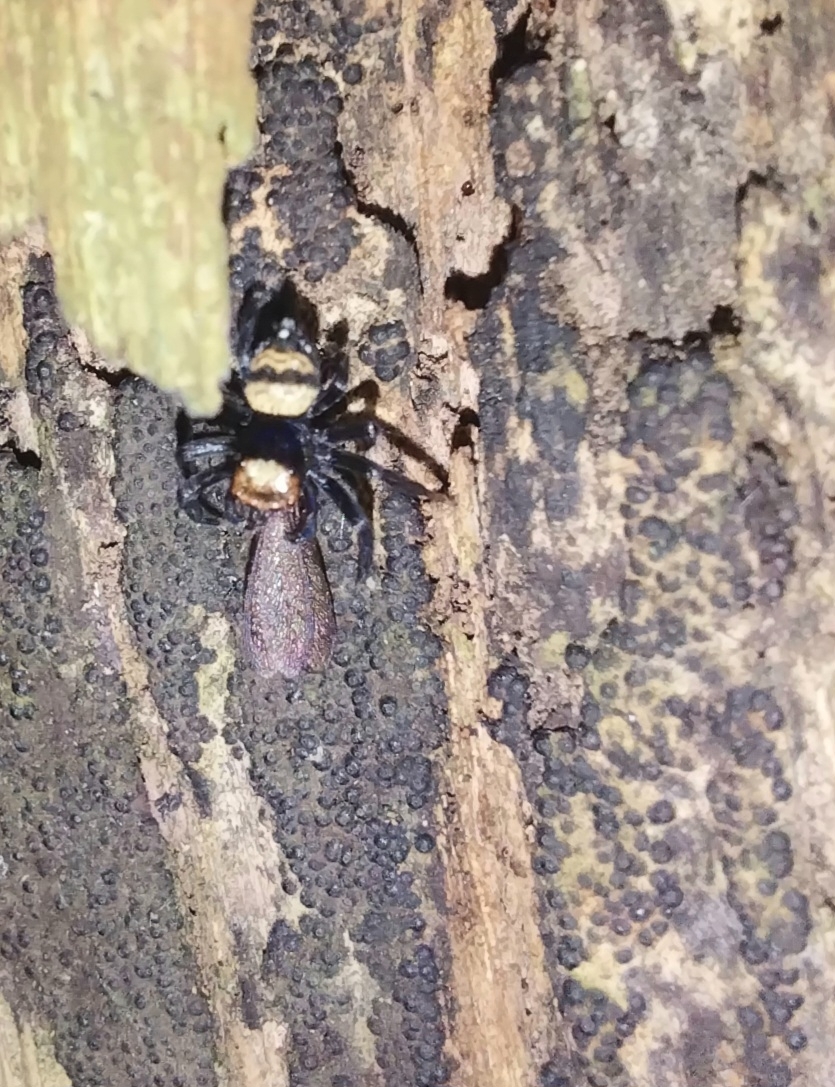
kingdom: Animalia
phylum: Arthropoda
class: Arachnida
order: Araneae
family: Salticidae
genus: Thorelliola
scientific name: Thorelliola ensifera
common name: Jumping spider
